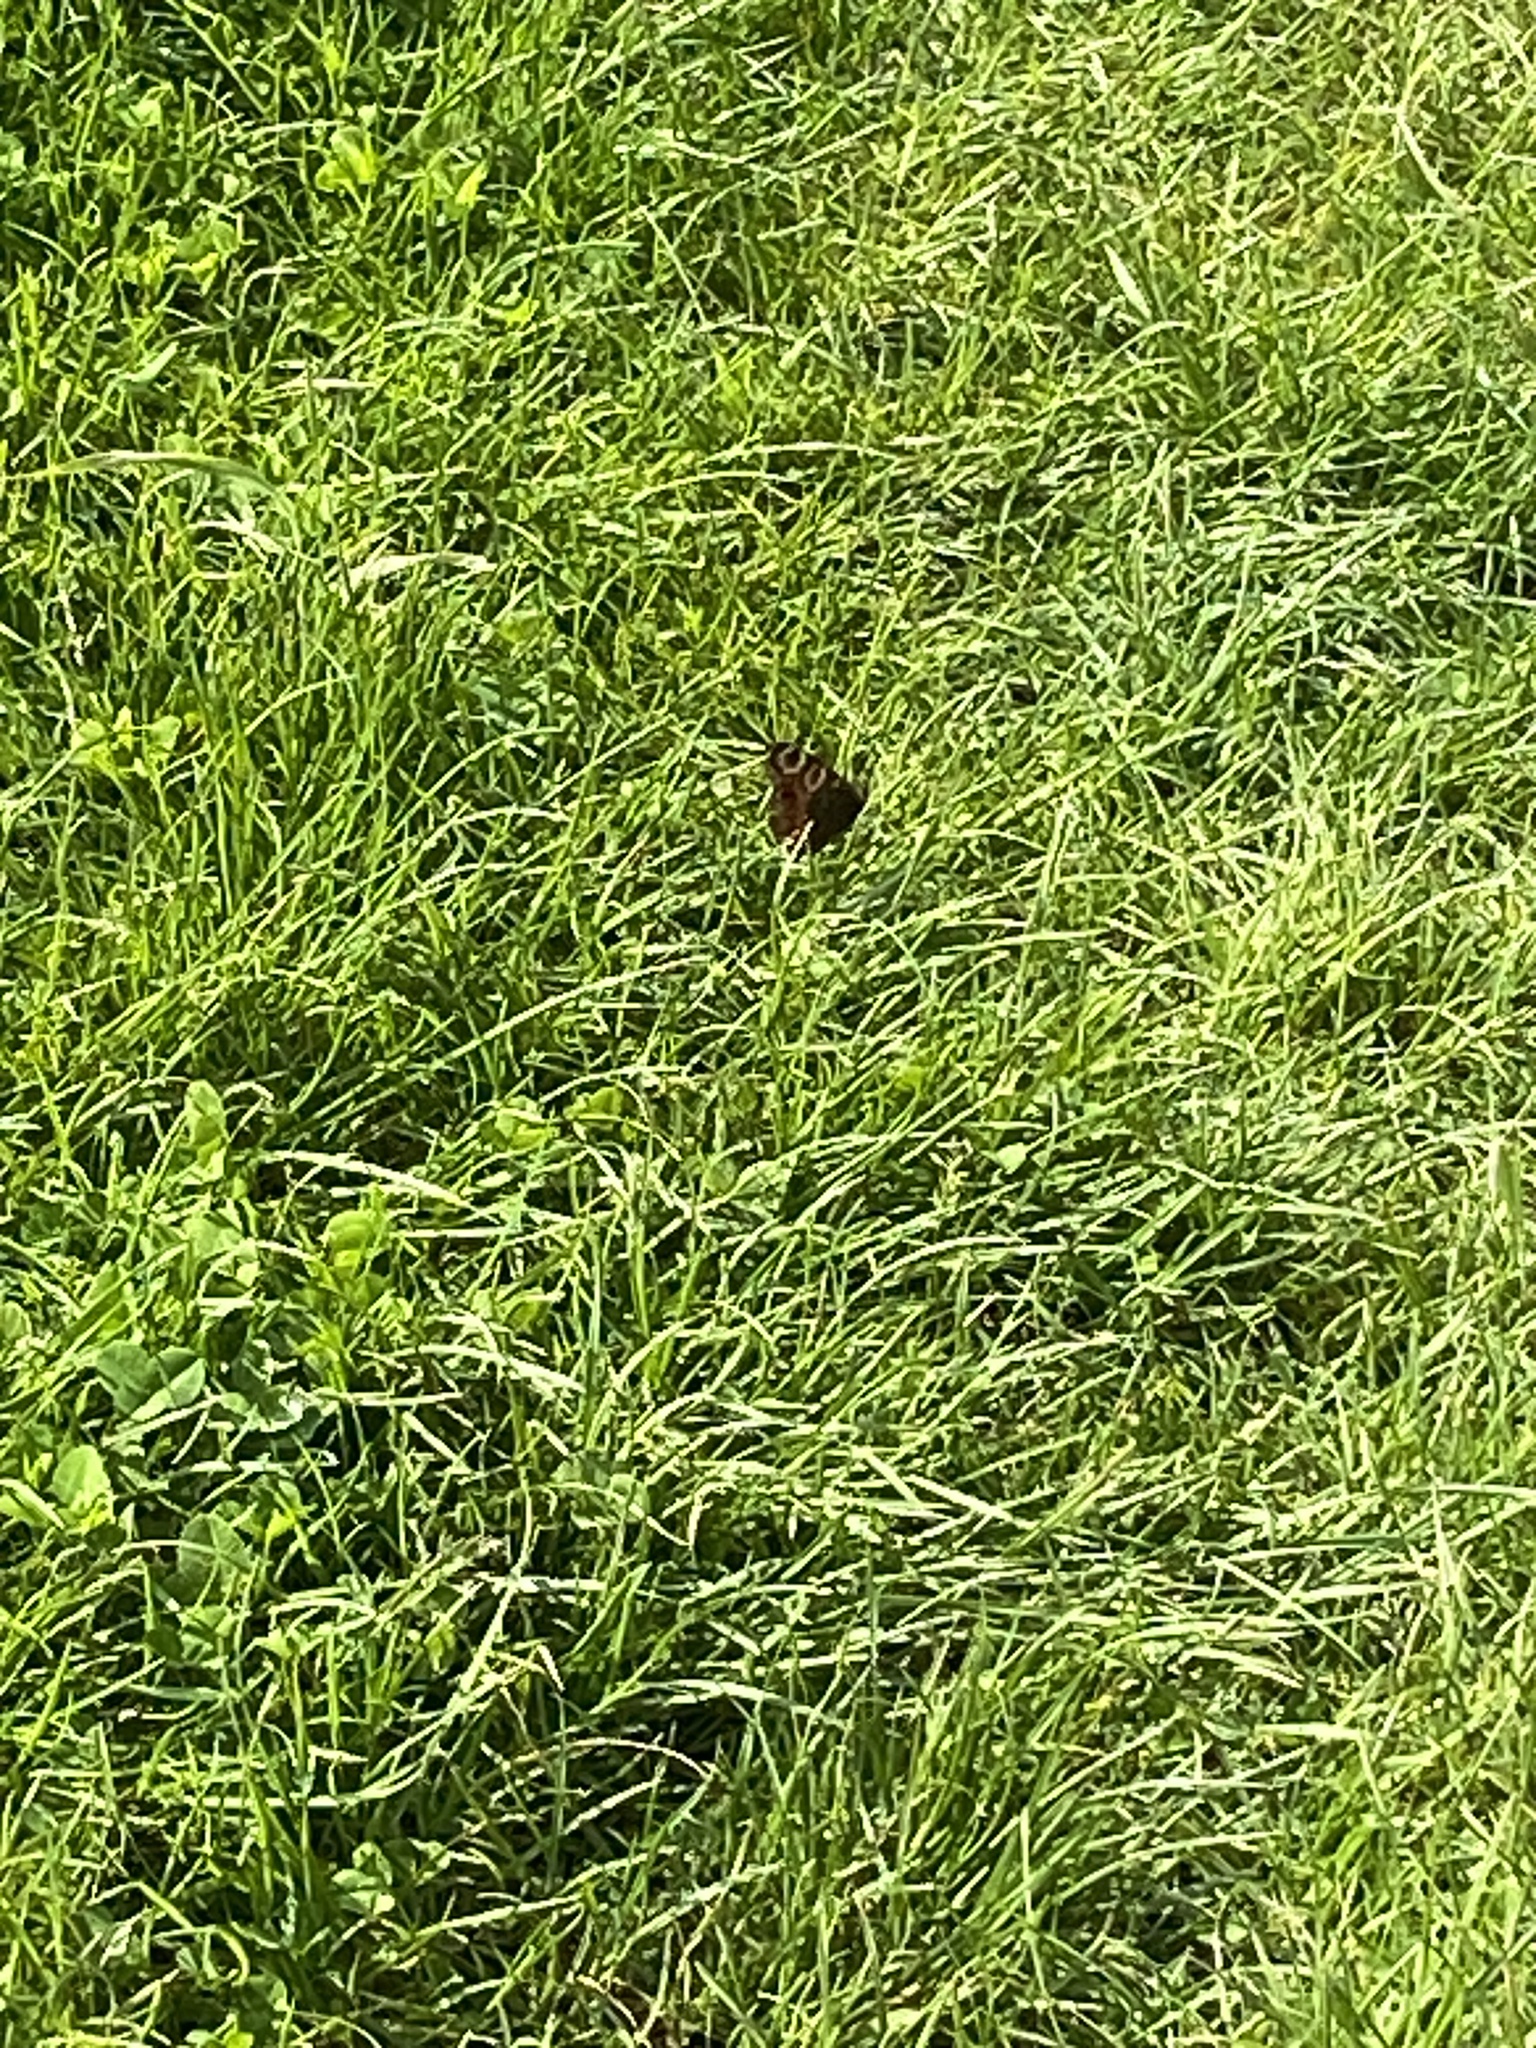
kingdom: Animalia
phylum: Arthropoda
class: Insecta
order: Lepidoptera
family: Nymphalidae
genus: Aglais
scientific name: Aglais io
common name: Peacock
